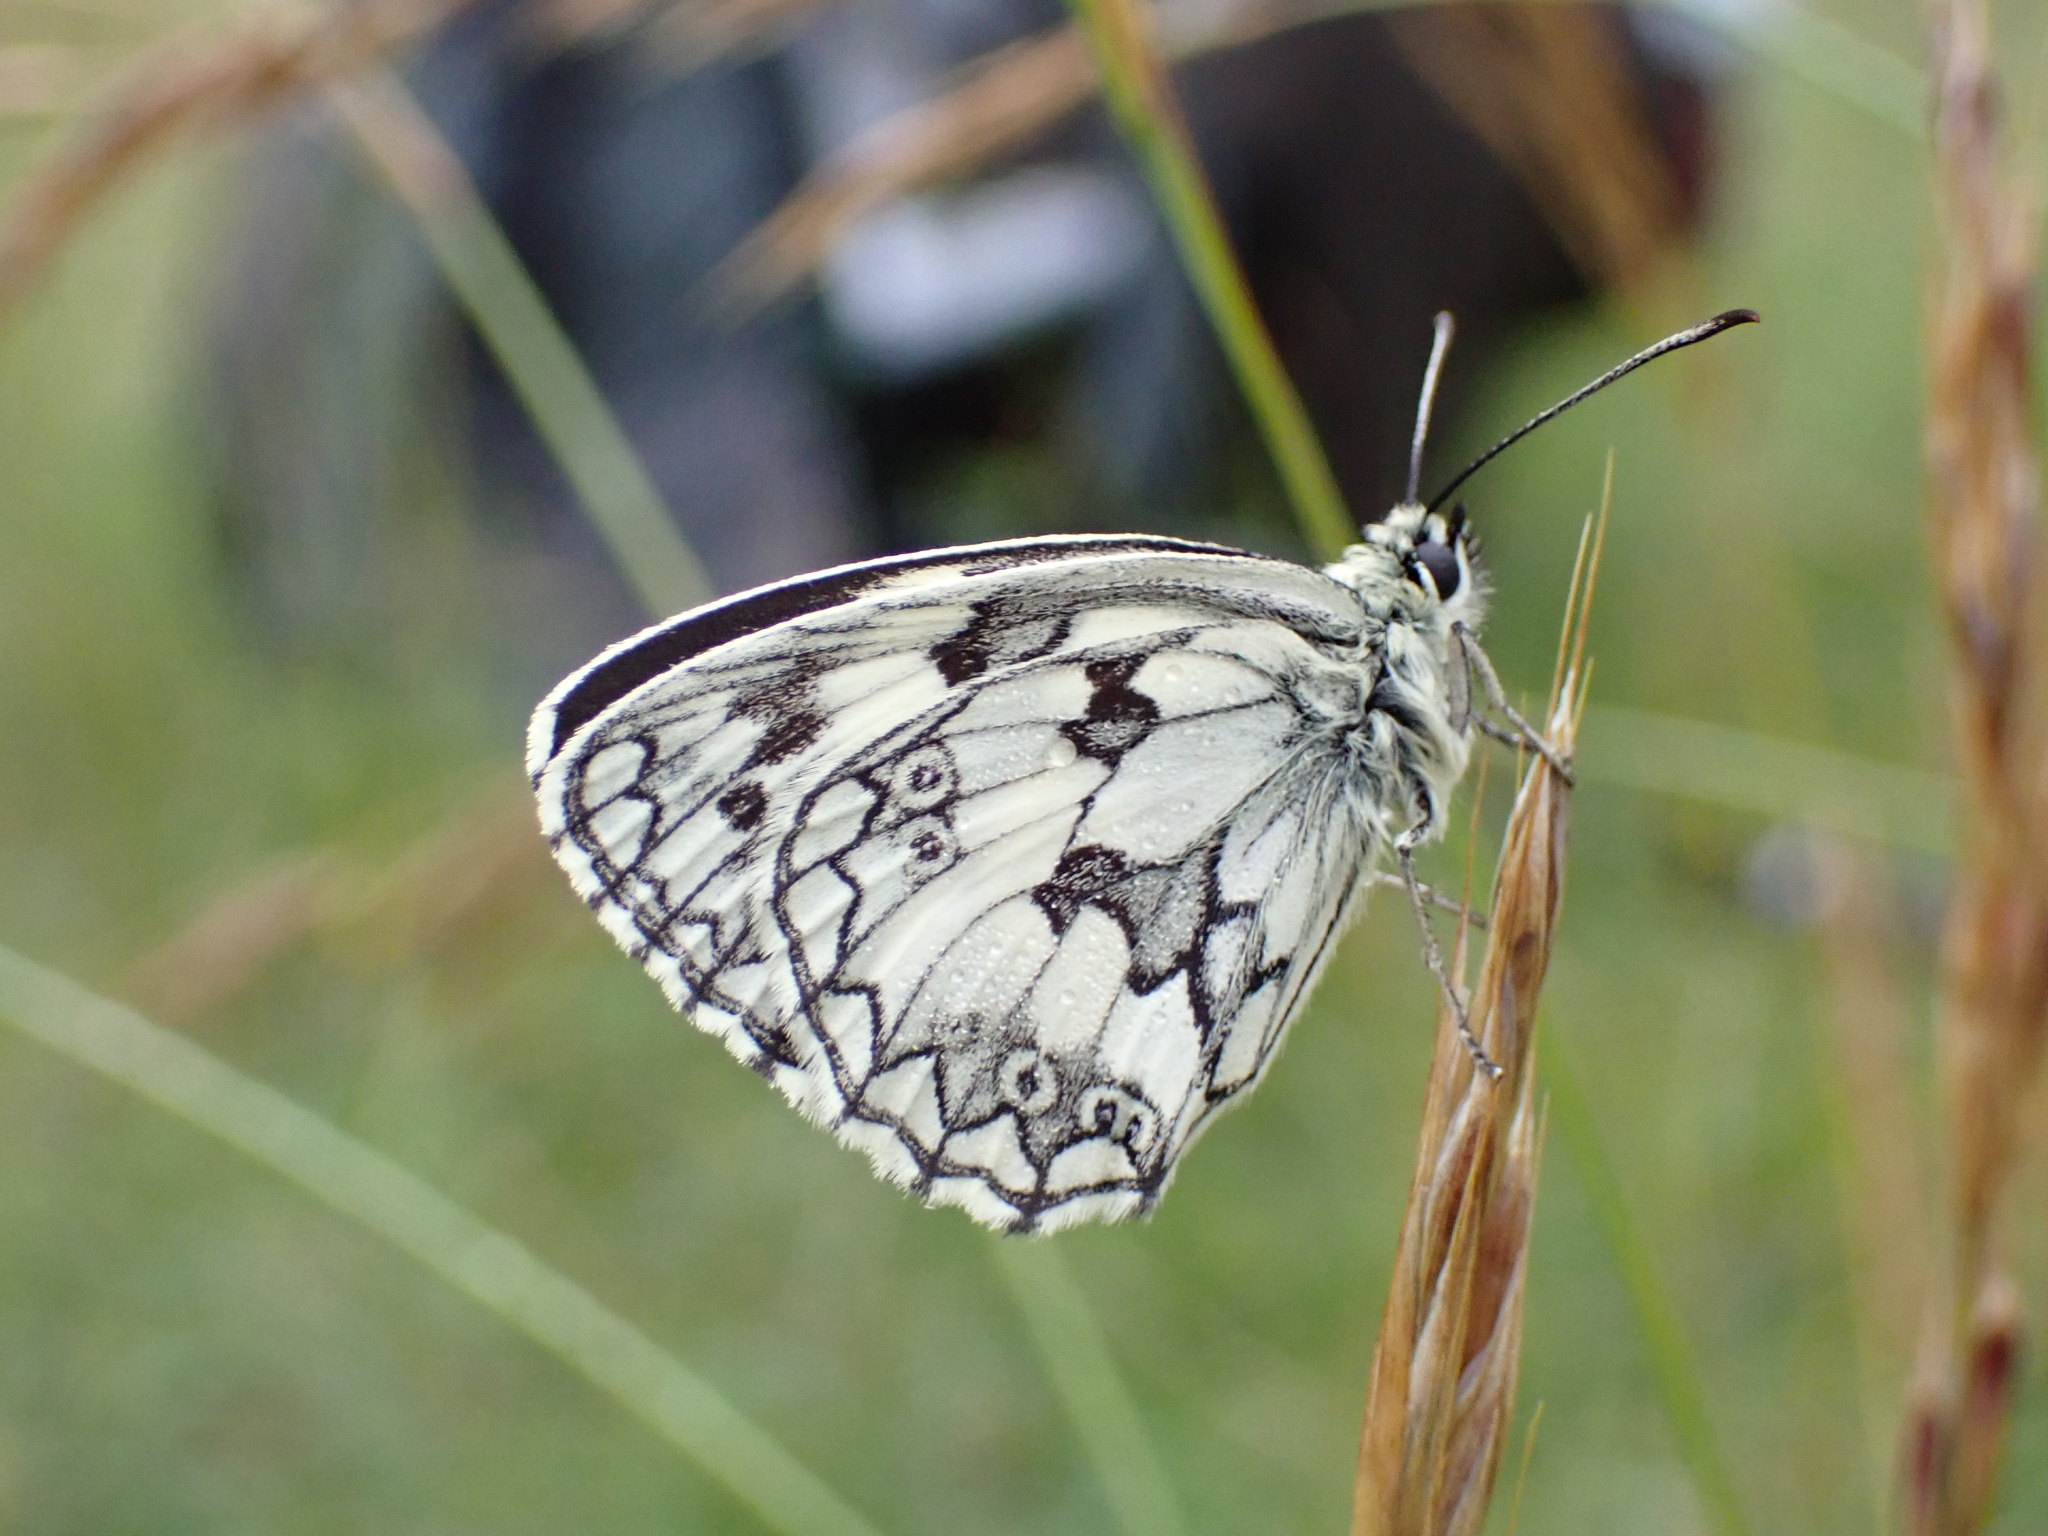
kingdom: Animalia
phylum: Arthropoda
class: Insecta
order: Lepidoptera
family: Nymphalidae
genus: Melanargia
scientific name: Melanargia galathea
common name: Marbled white
